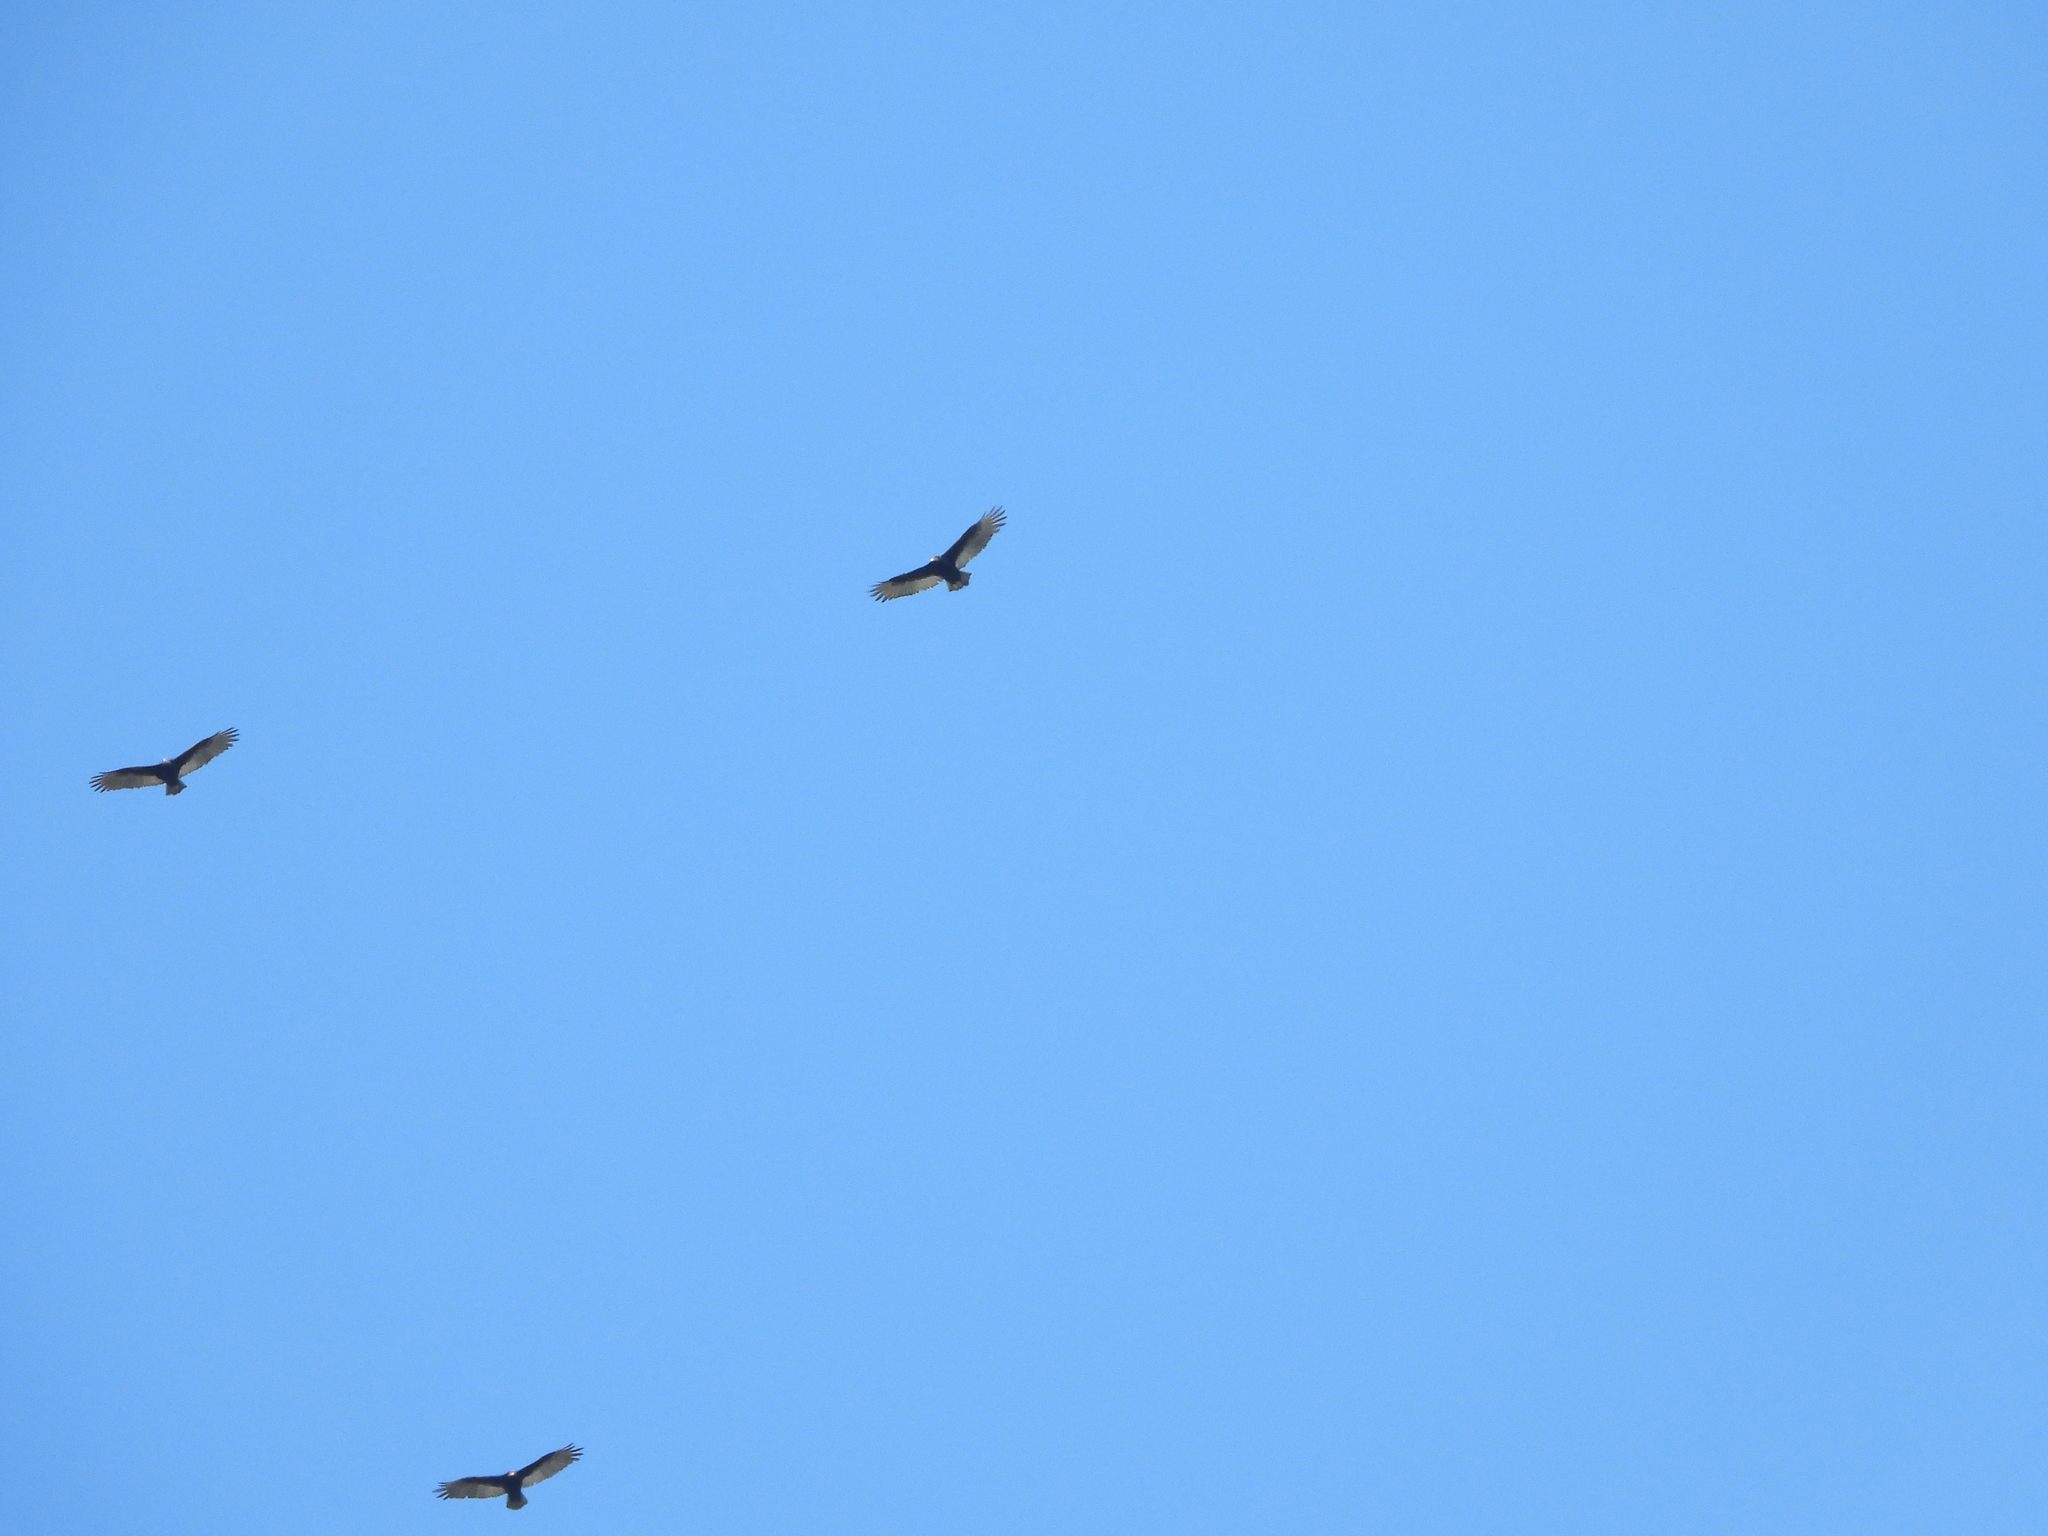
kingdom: Animalia
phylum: Chordata
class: Aves
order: Accipitriformes
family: Cathartidae
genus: Cathartes
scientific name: Cathartes aura
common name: Turkey vulture
